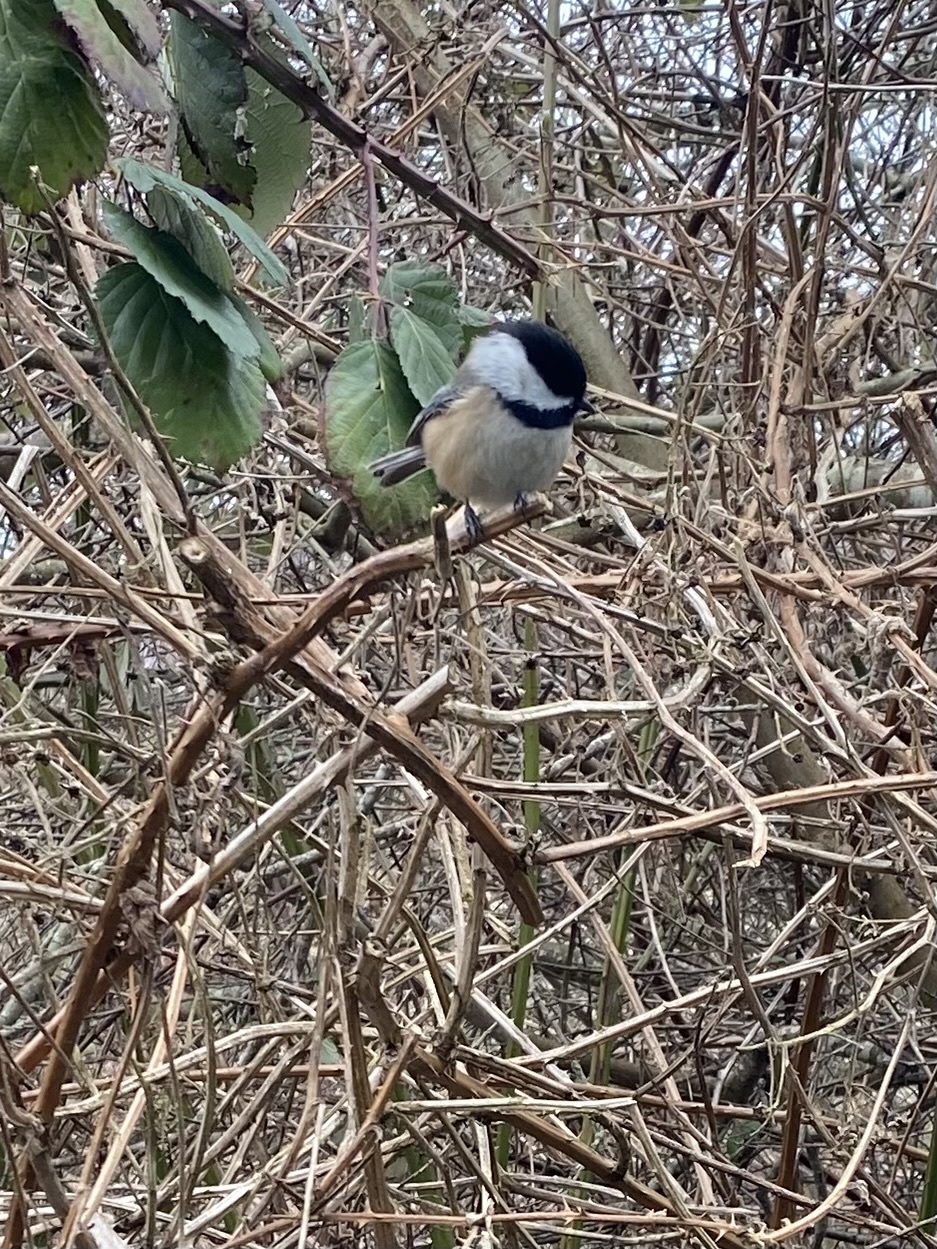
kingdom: Animalia
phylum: Chordata
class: Aves
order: Passeriformes
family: Paridae
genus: Poecile
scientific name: Poecile atricapillus
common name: Black-capped chickadee
